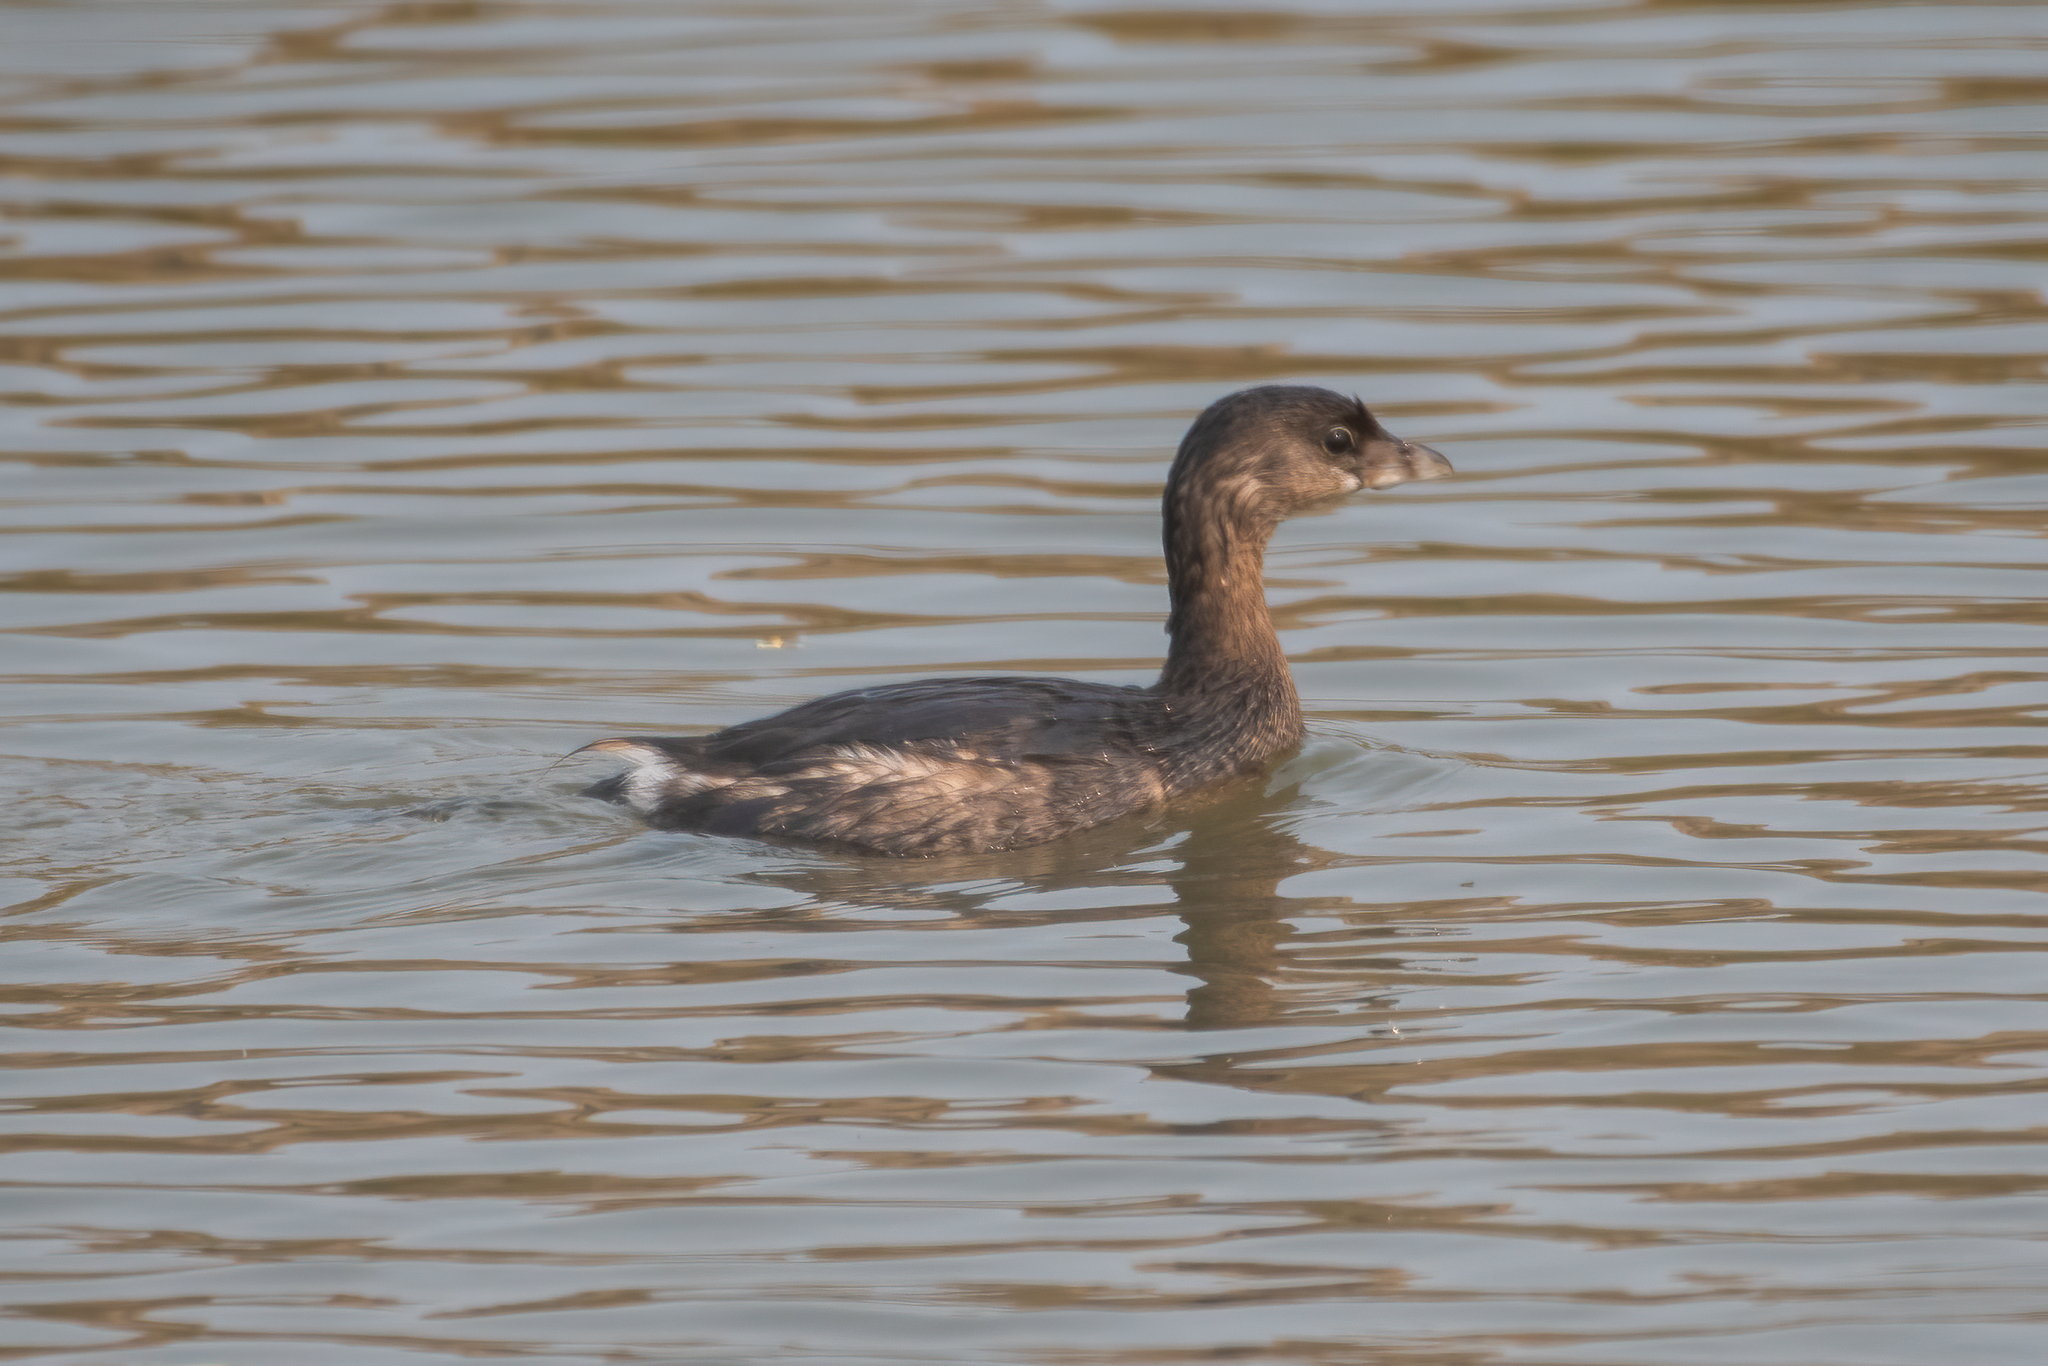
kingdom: Animalia
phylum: Chordata
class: Aves
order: Podicipediformes
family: Podicipedidae
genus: Podilymbus
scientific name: Podilymbus podiceps
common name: Pied-billed grebe
